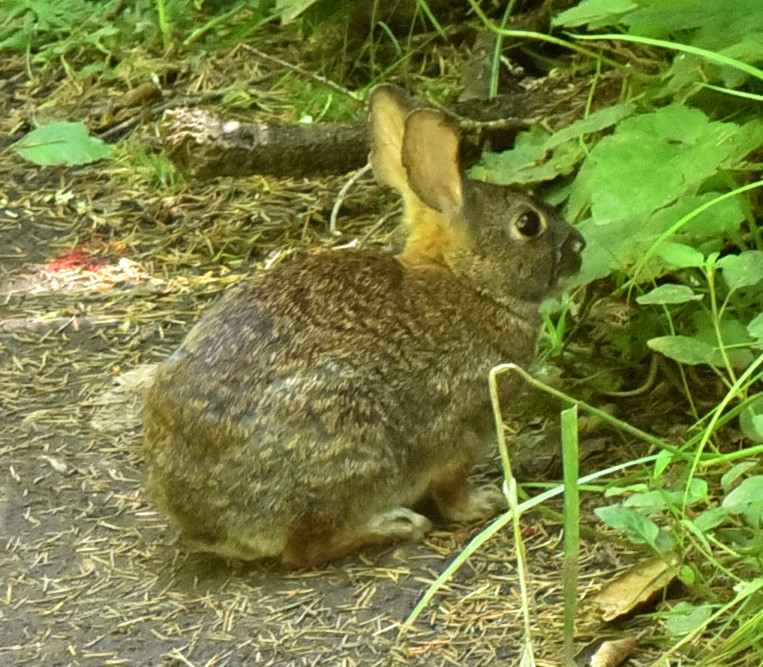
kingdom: Animalia
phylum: Chordata
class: Mammalia
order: Lagomorpha
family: Leporidae
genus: Sylvilagus
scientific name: Sylvilagus bachmani
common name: Brush rabbit
